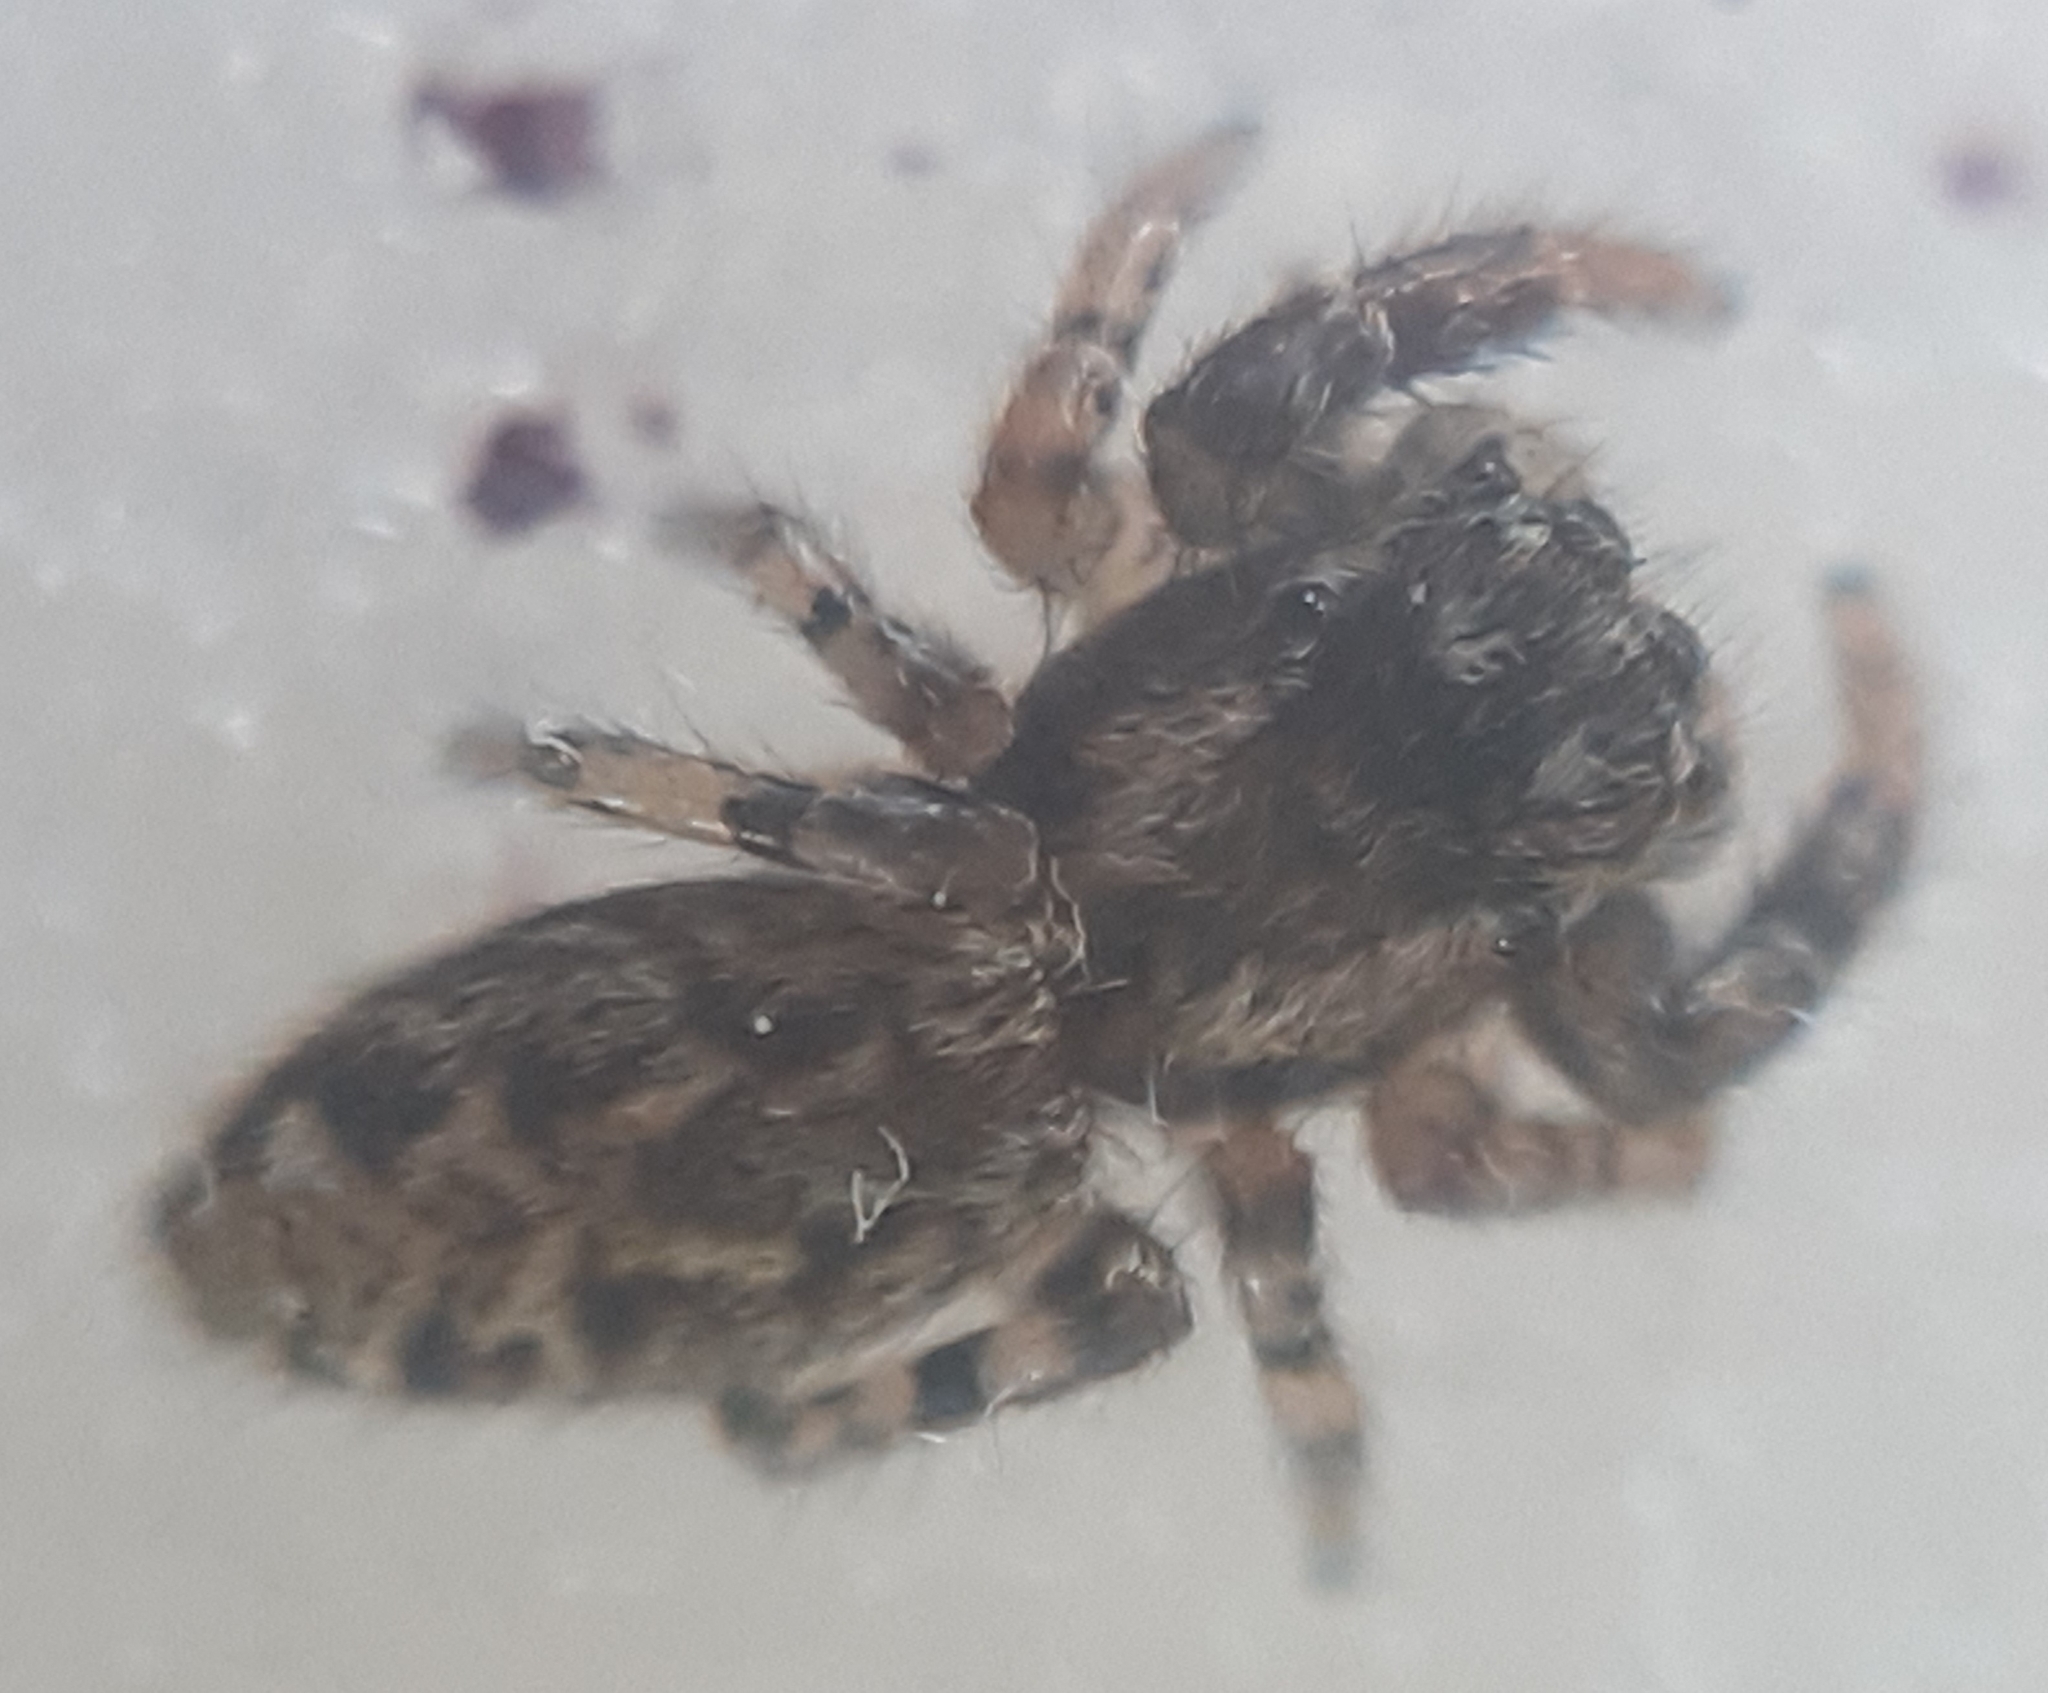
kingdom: Animalia
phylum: Arthropoda
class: Arachnida
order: Araneae
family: Salticidae
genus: Marpissa
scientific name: Marpissa muscosa
